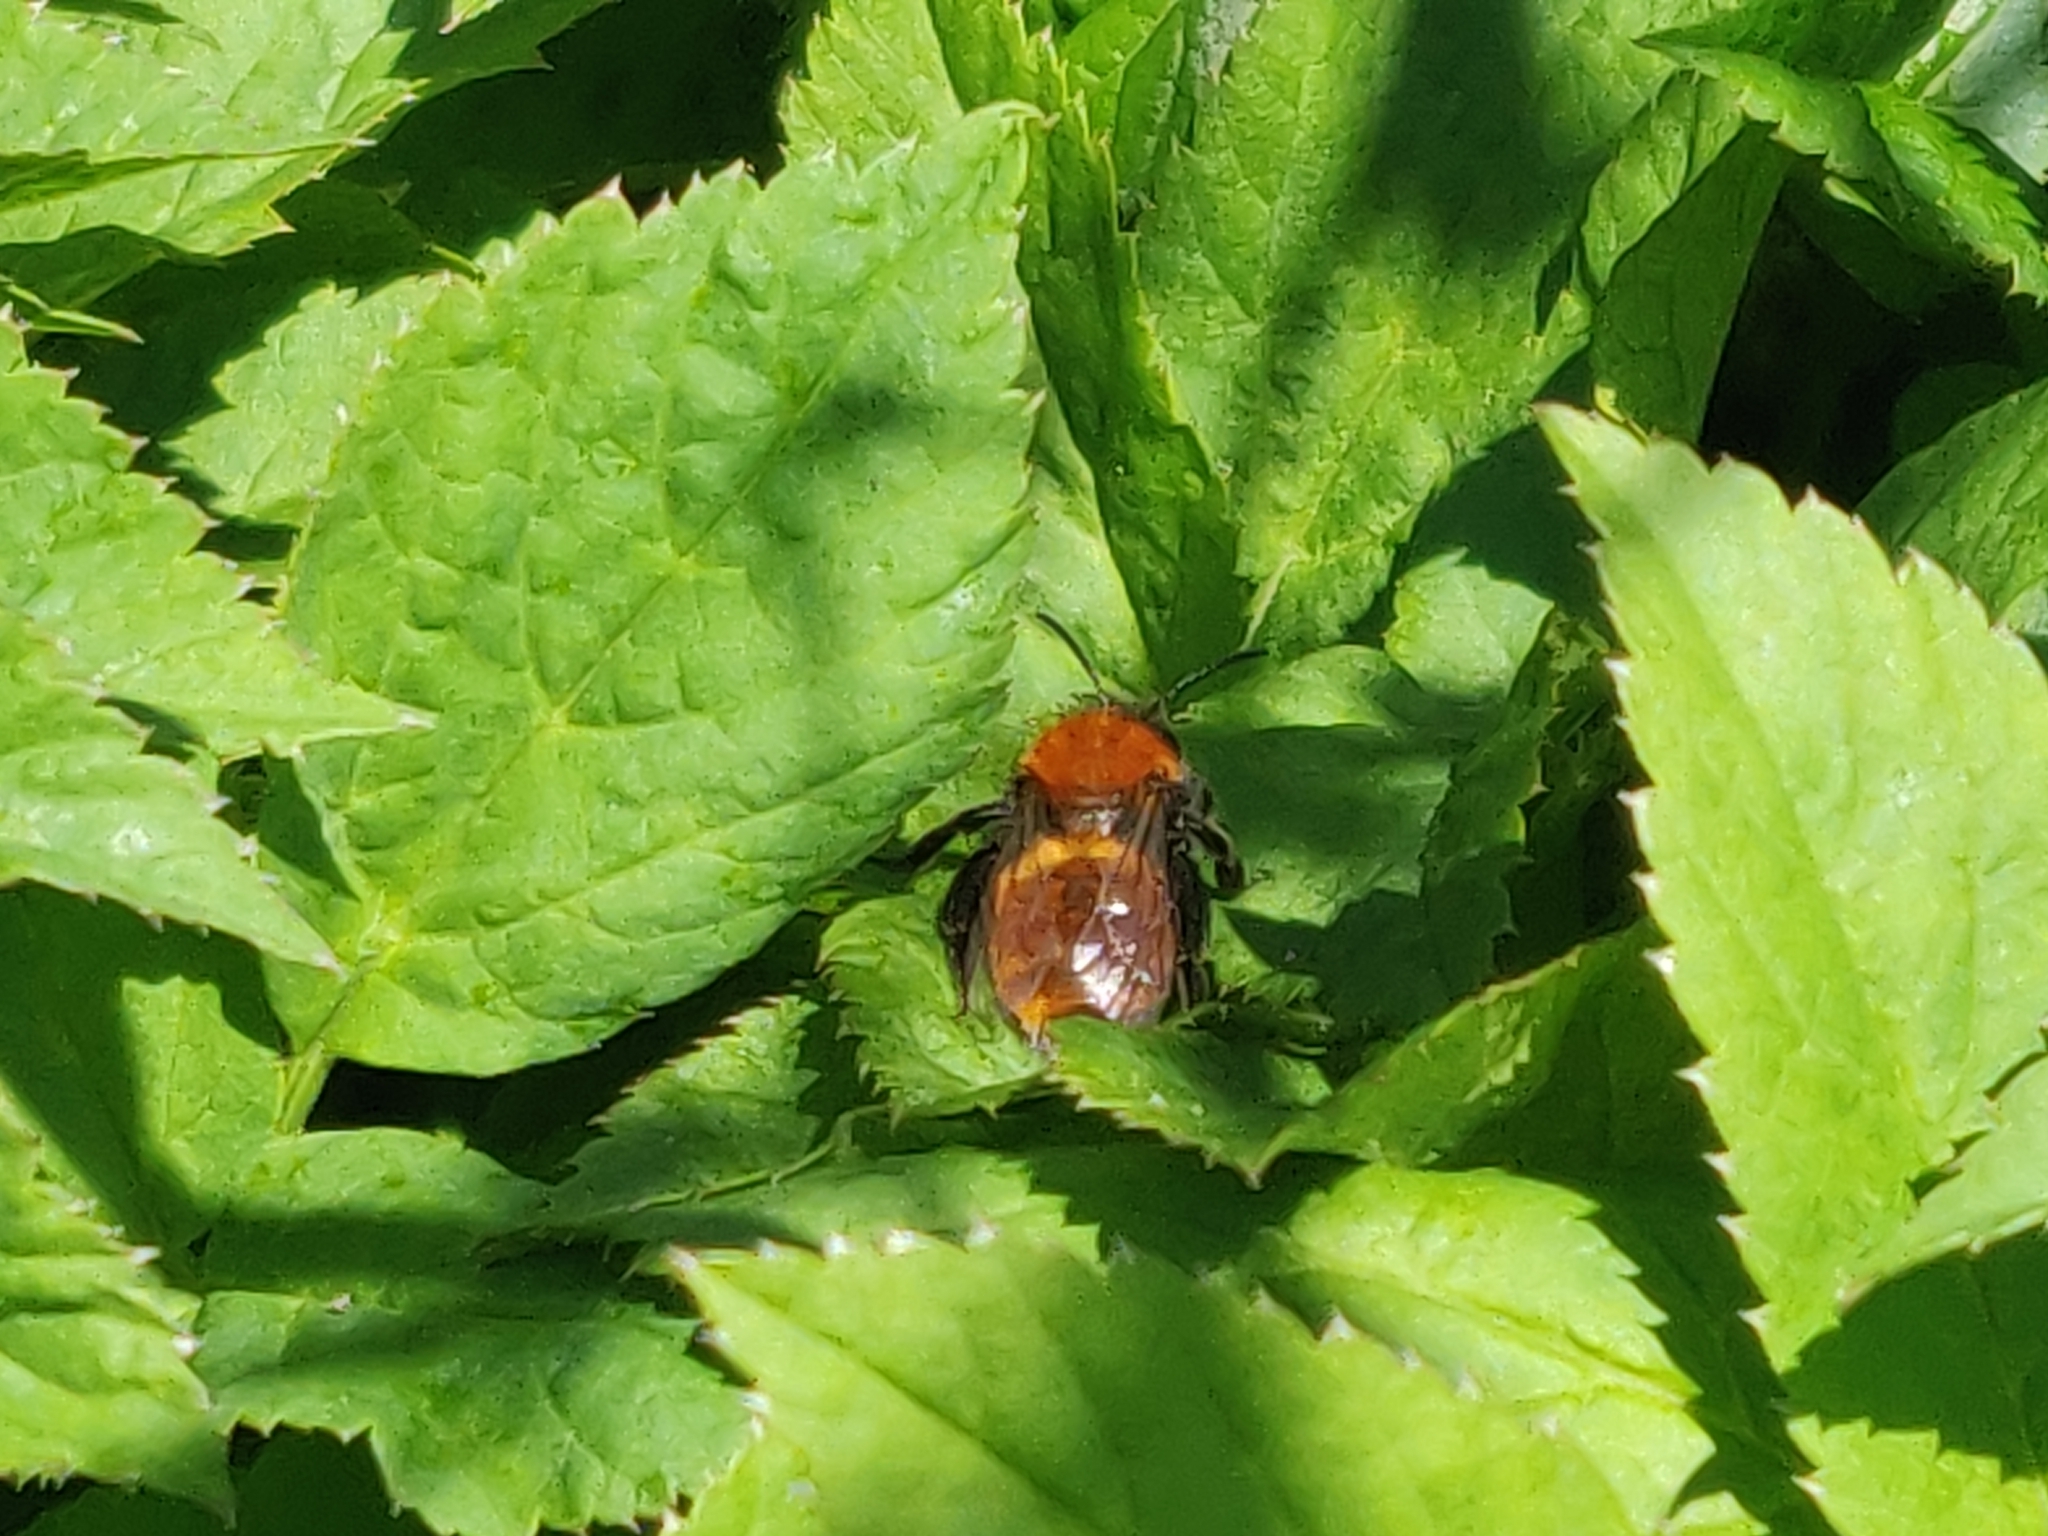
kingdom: Animalia
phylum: Arthropoda
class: Insecta
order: Hymenoptera
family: Andrenidae
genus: Andrena
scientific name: Andrena fulva
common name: Tawny mining bee
